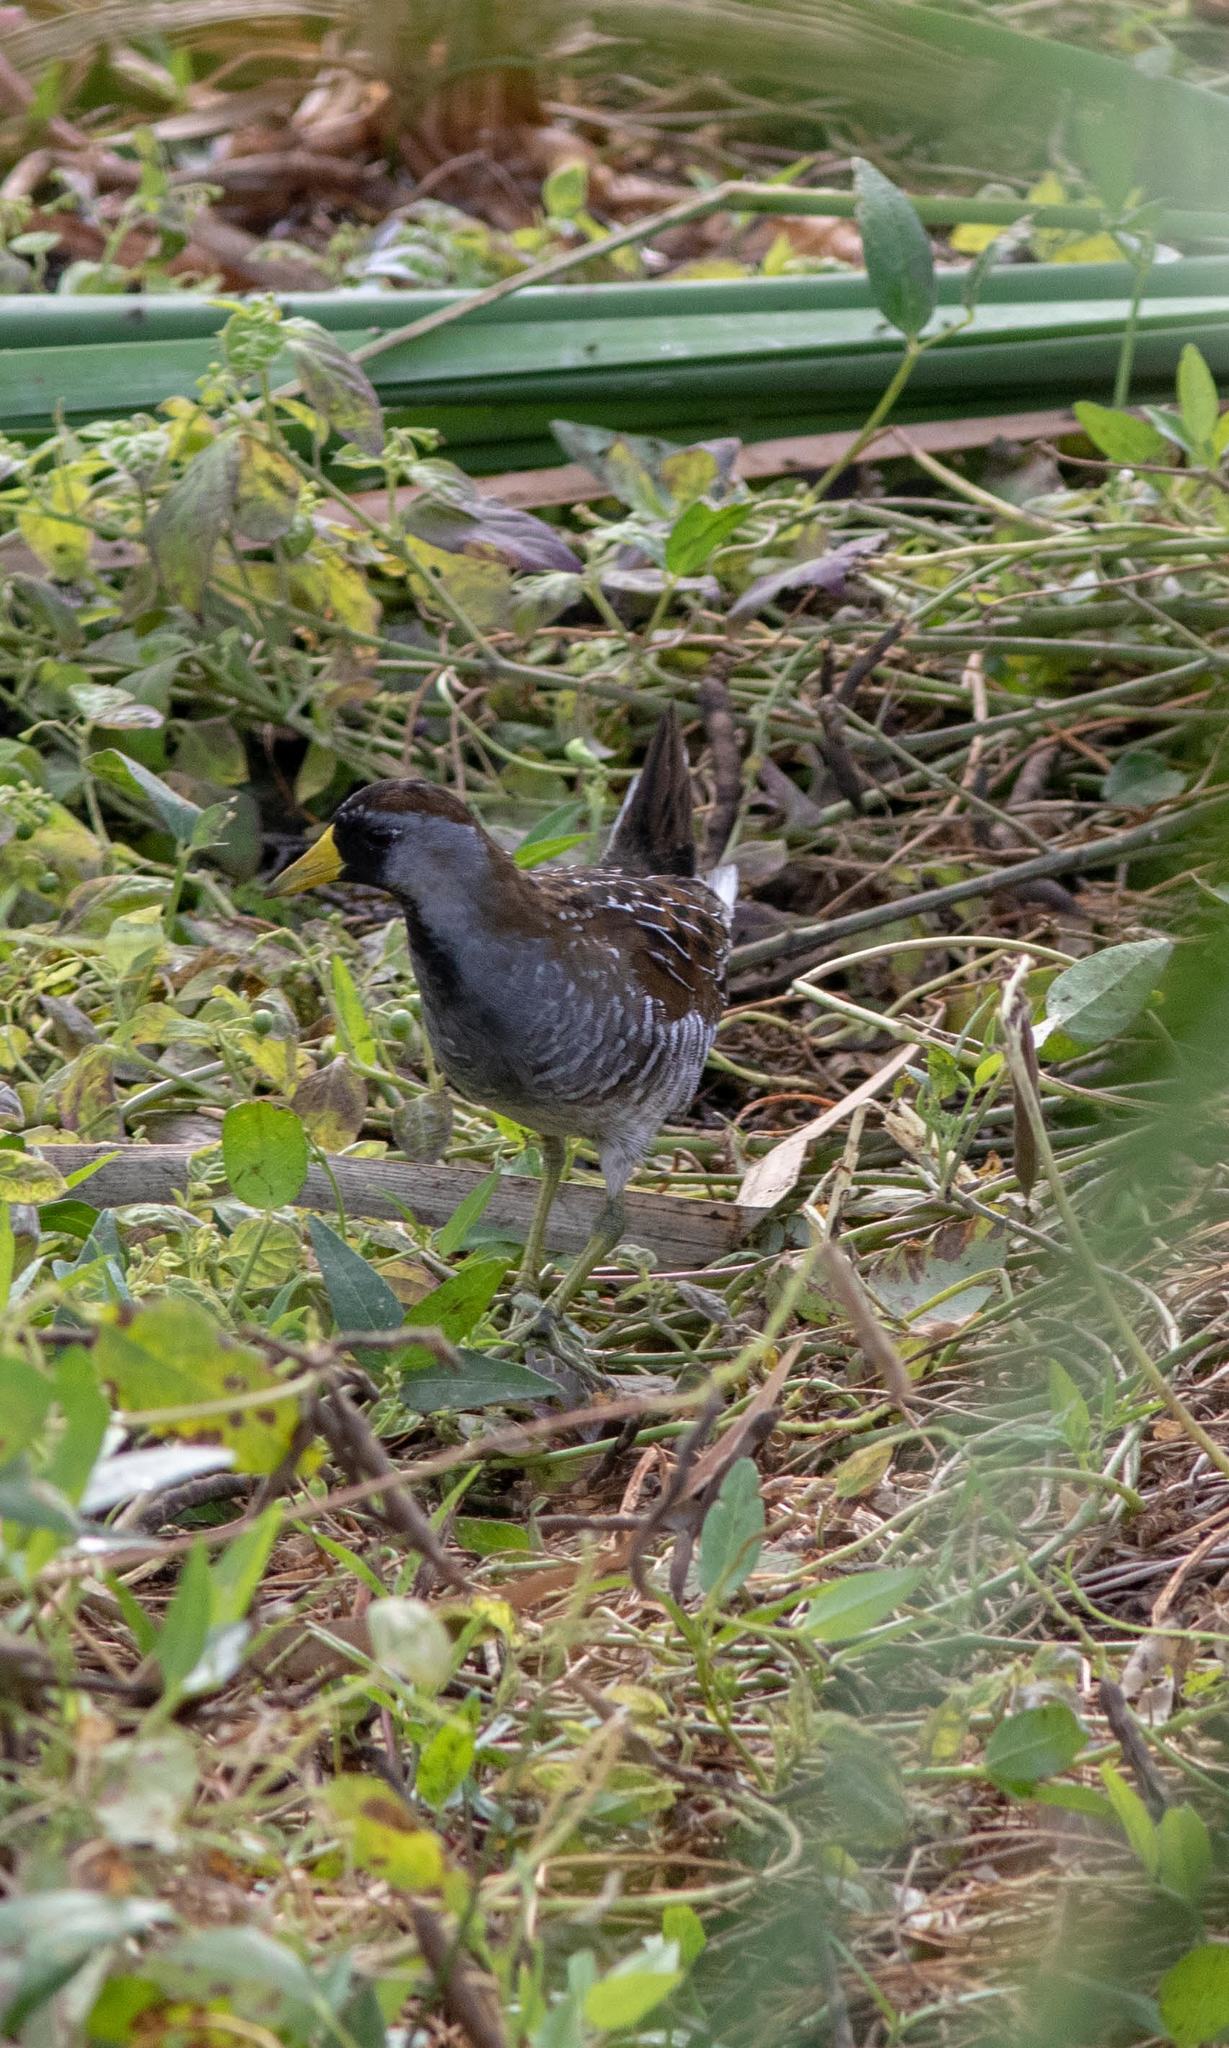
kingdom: Animalia
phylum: Chordata
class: Aves
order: Gruiformes
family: Rallidae
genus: Porzana
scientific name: Porzana carolina
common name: Sora
